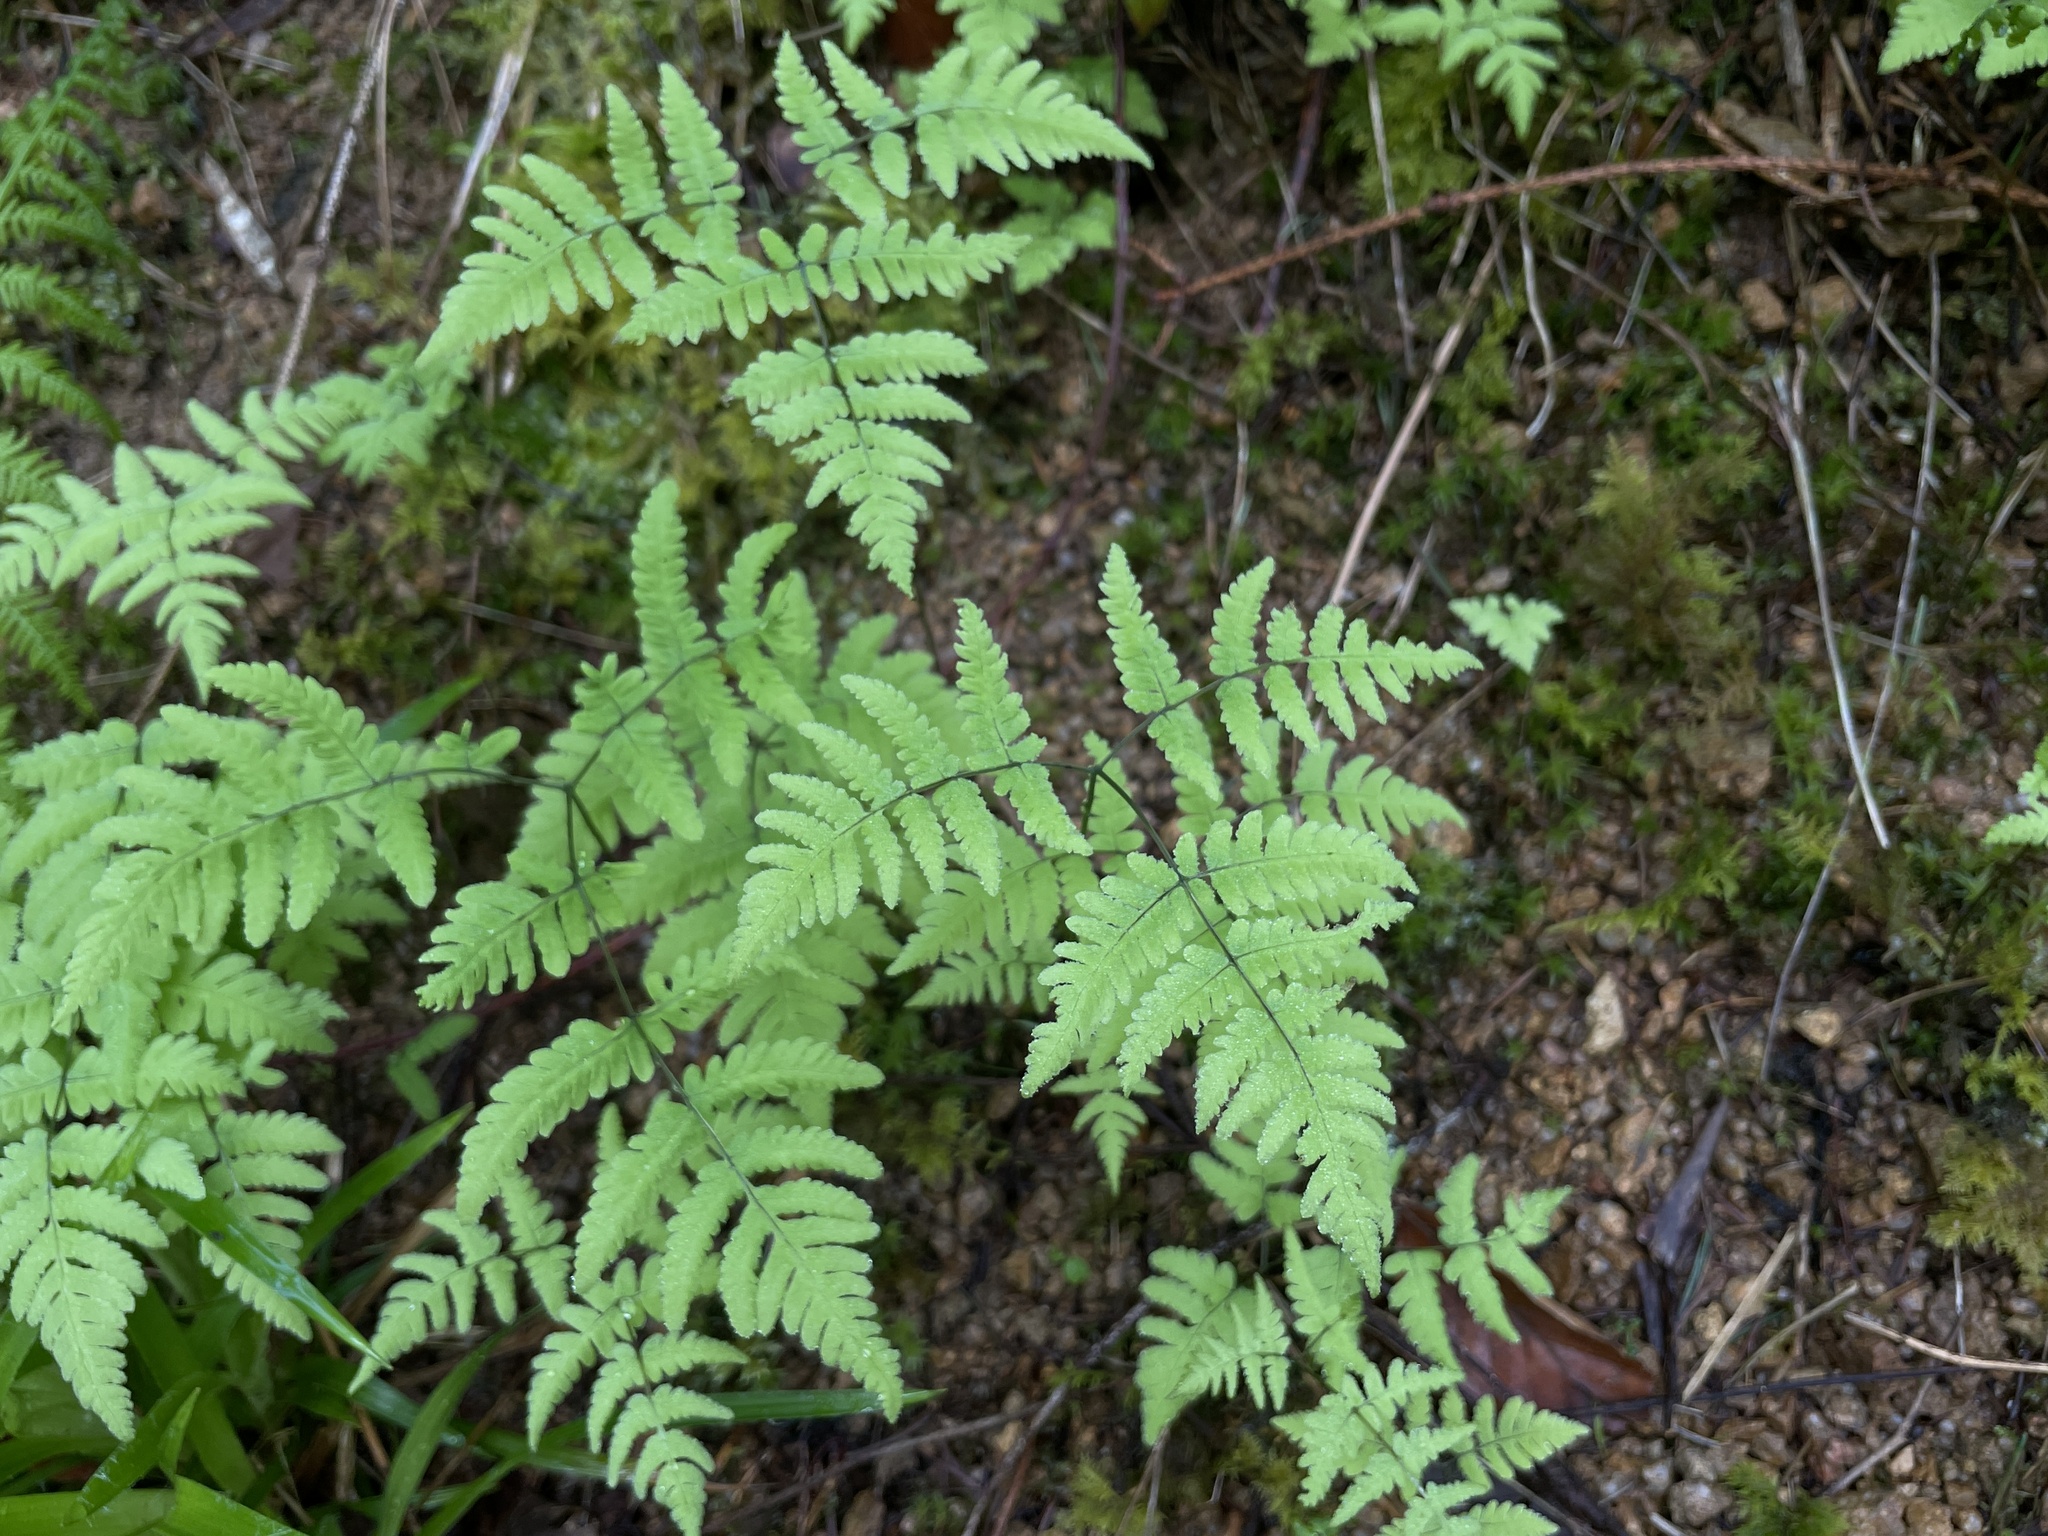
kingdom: Plantae
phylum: Tracheophyta
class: Polypodiopsida
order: Polypodiales
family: Cystopteridaceae
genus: Gymnocarpium
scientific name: Gymnocarpium dryopteris
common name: Oak fern
